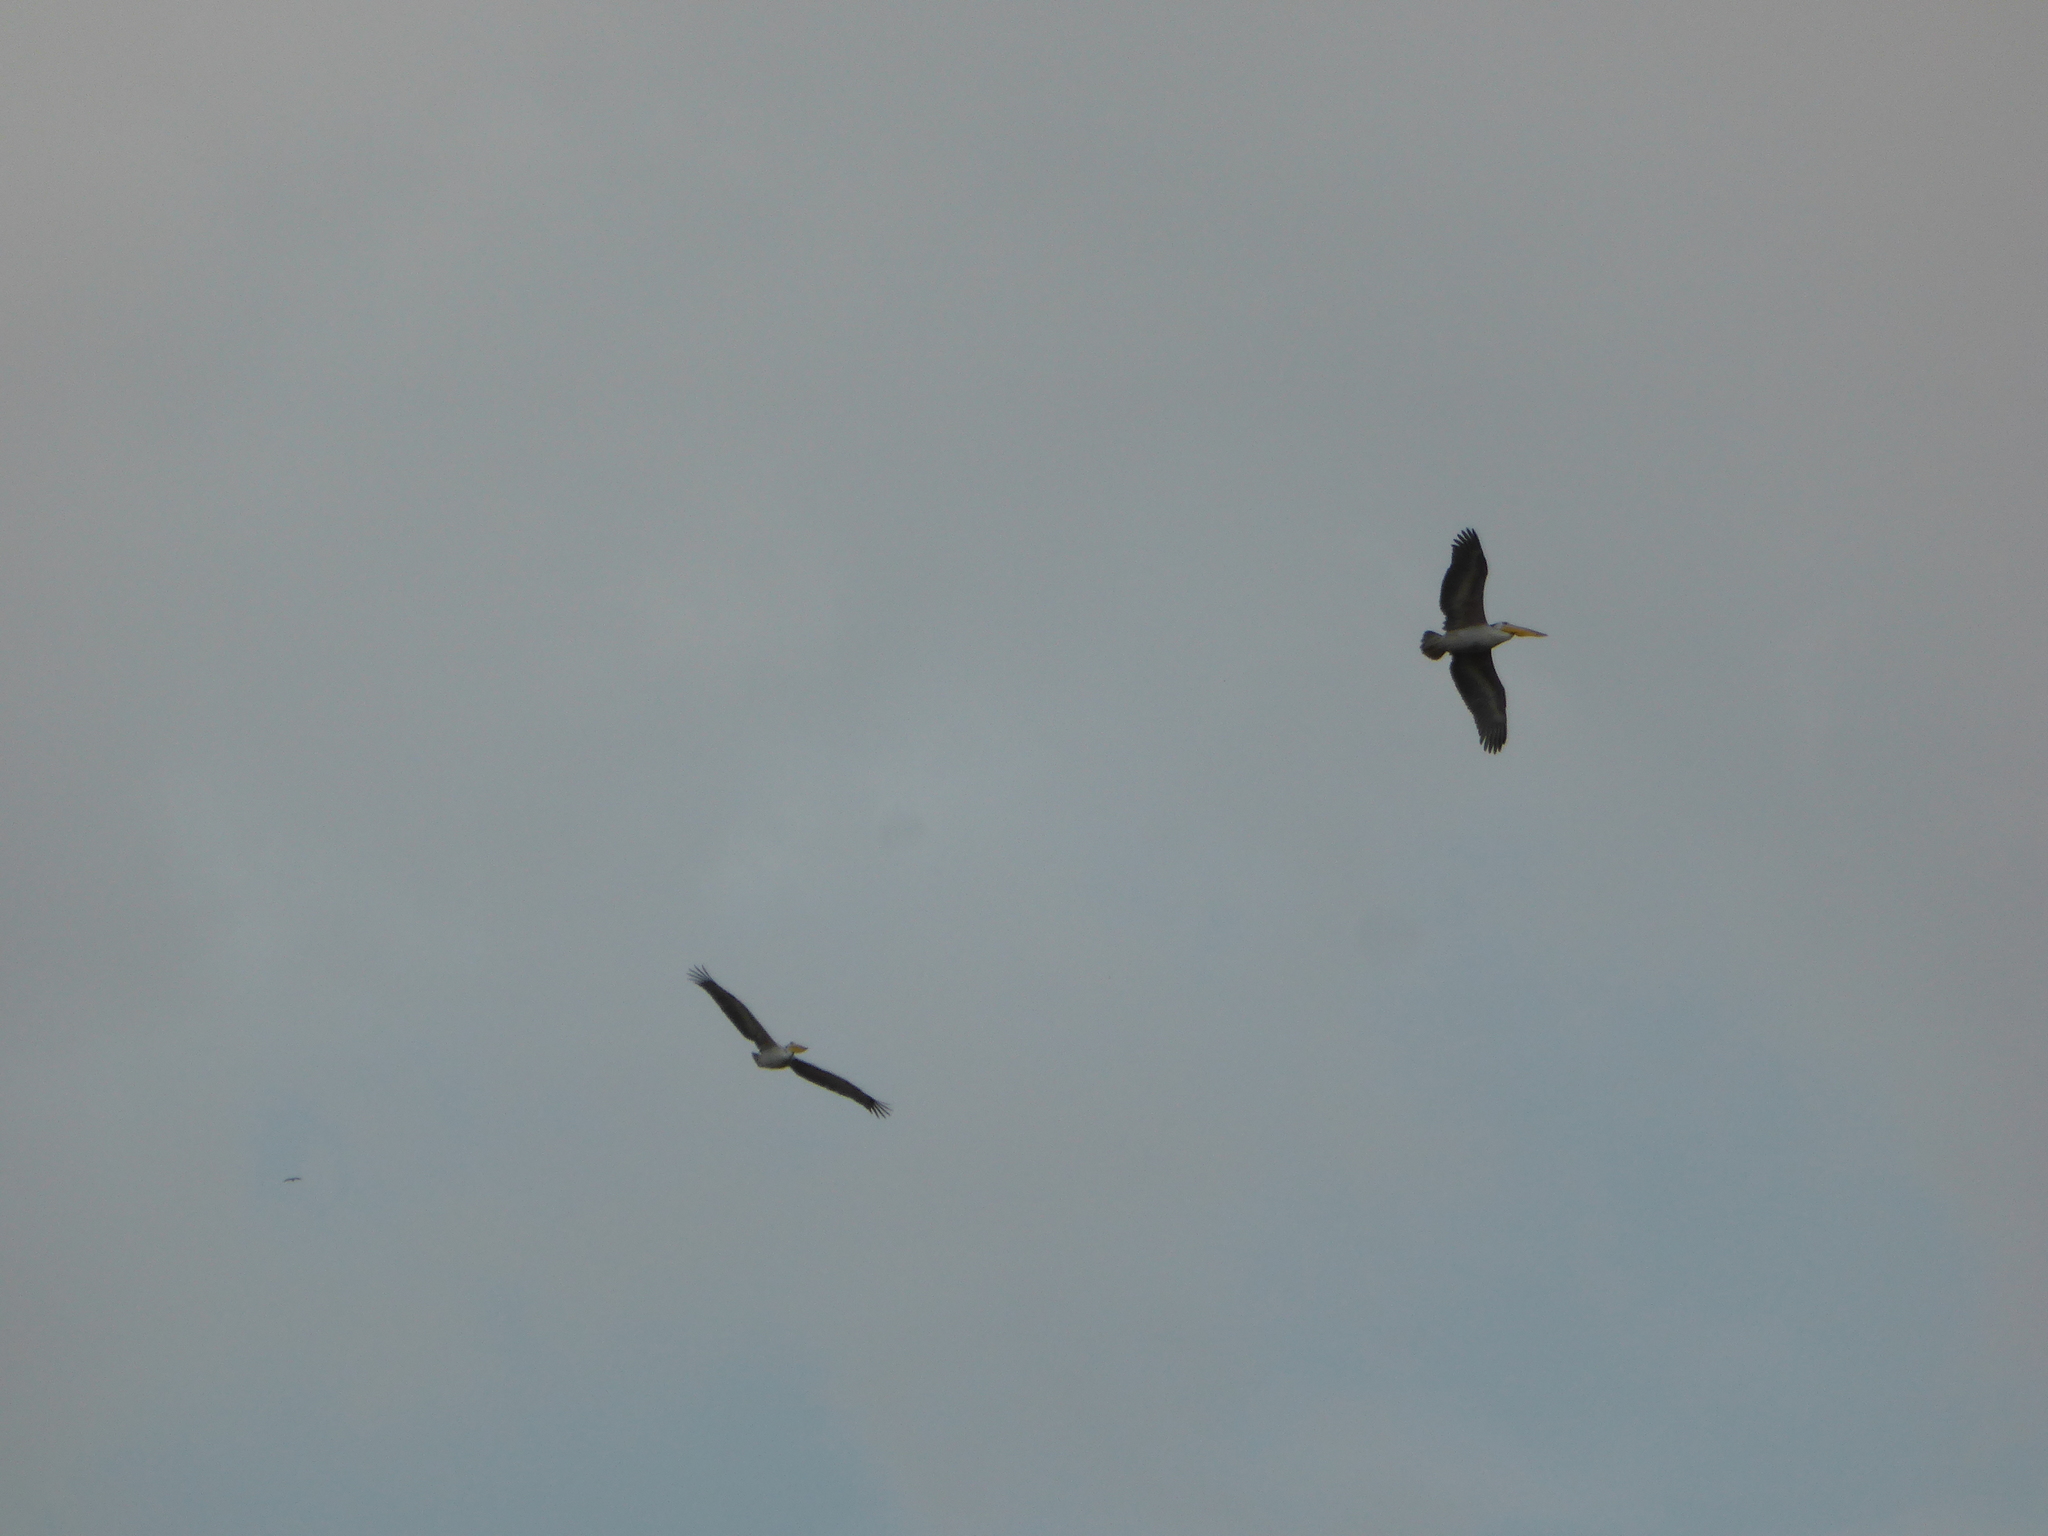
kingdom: Animalia
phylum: Chordata
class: Aves
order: Pelecaniformes
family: Pelecanidae
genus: Pelecanus
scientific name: Pelecanus rufescens
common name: Pink-backed pelican
